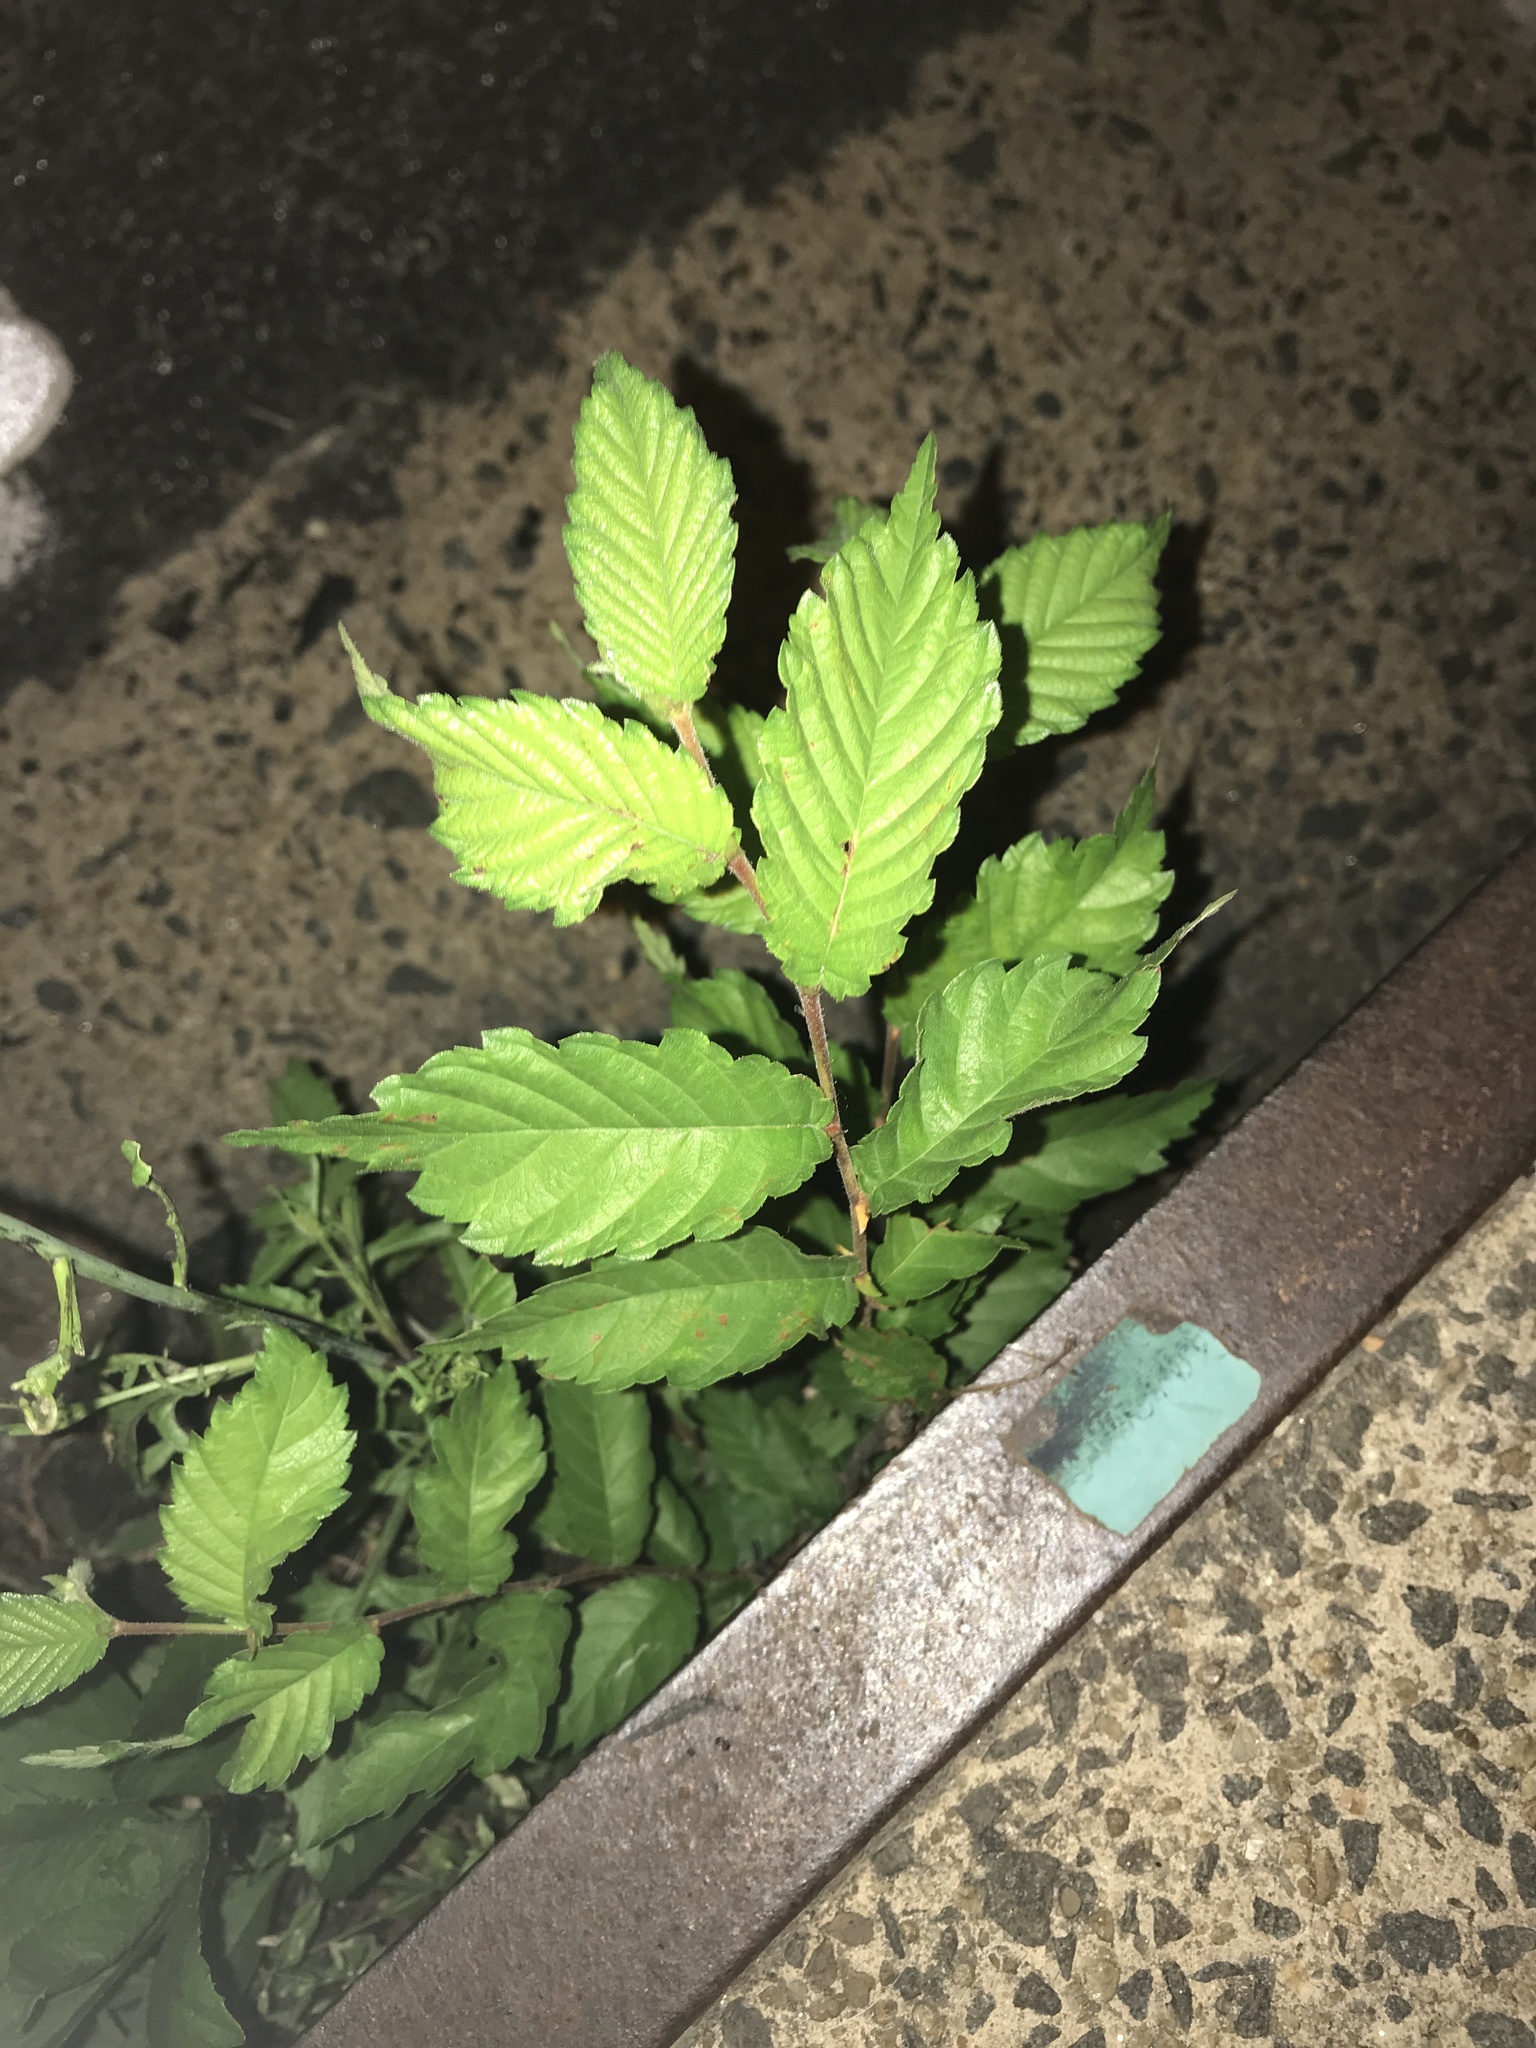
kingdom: Plantae
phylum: Tracheophyta
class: Magnoliopsida
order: Rosales
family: Ulmaceae
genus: Zelkova
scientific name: Zelkova serrata
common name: Japanese zelkova
